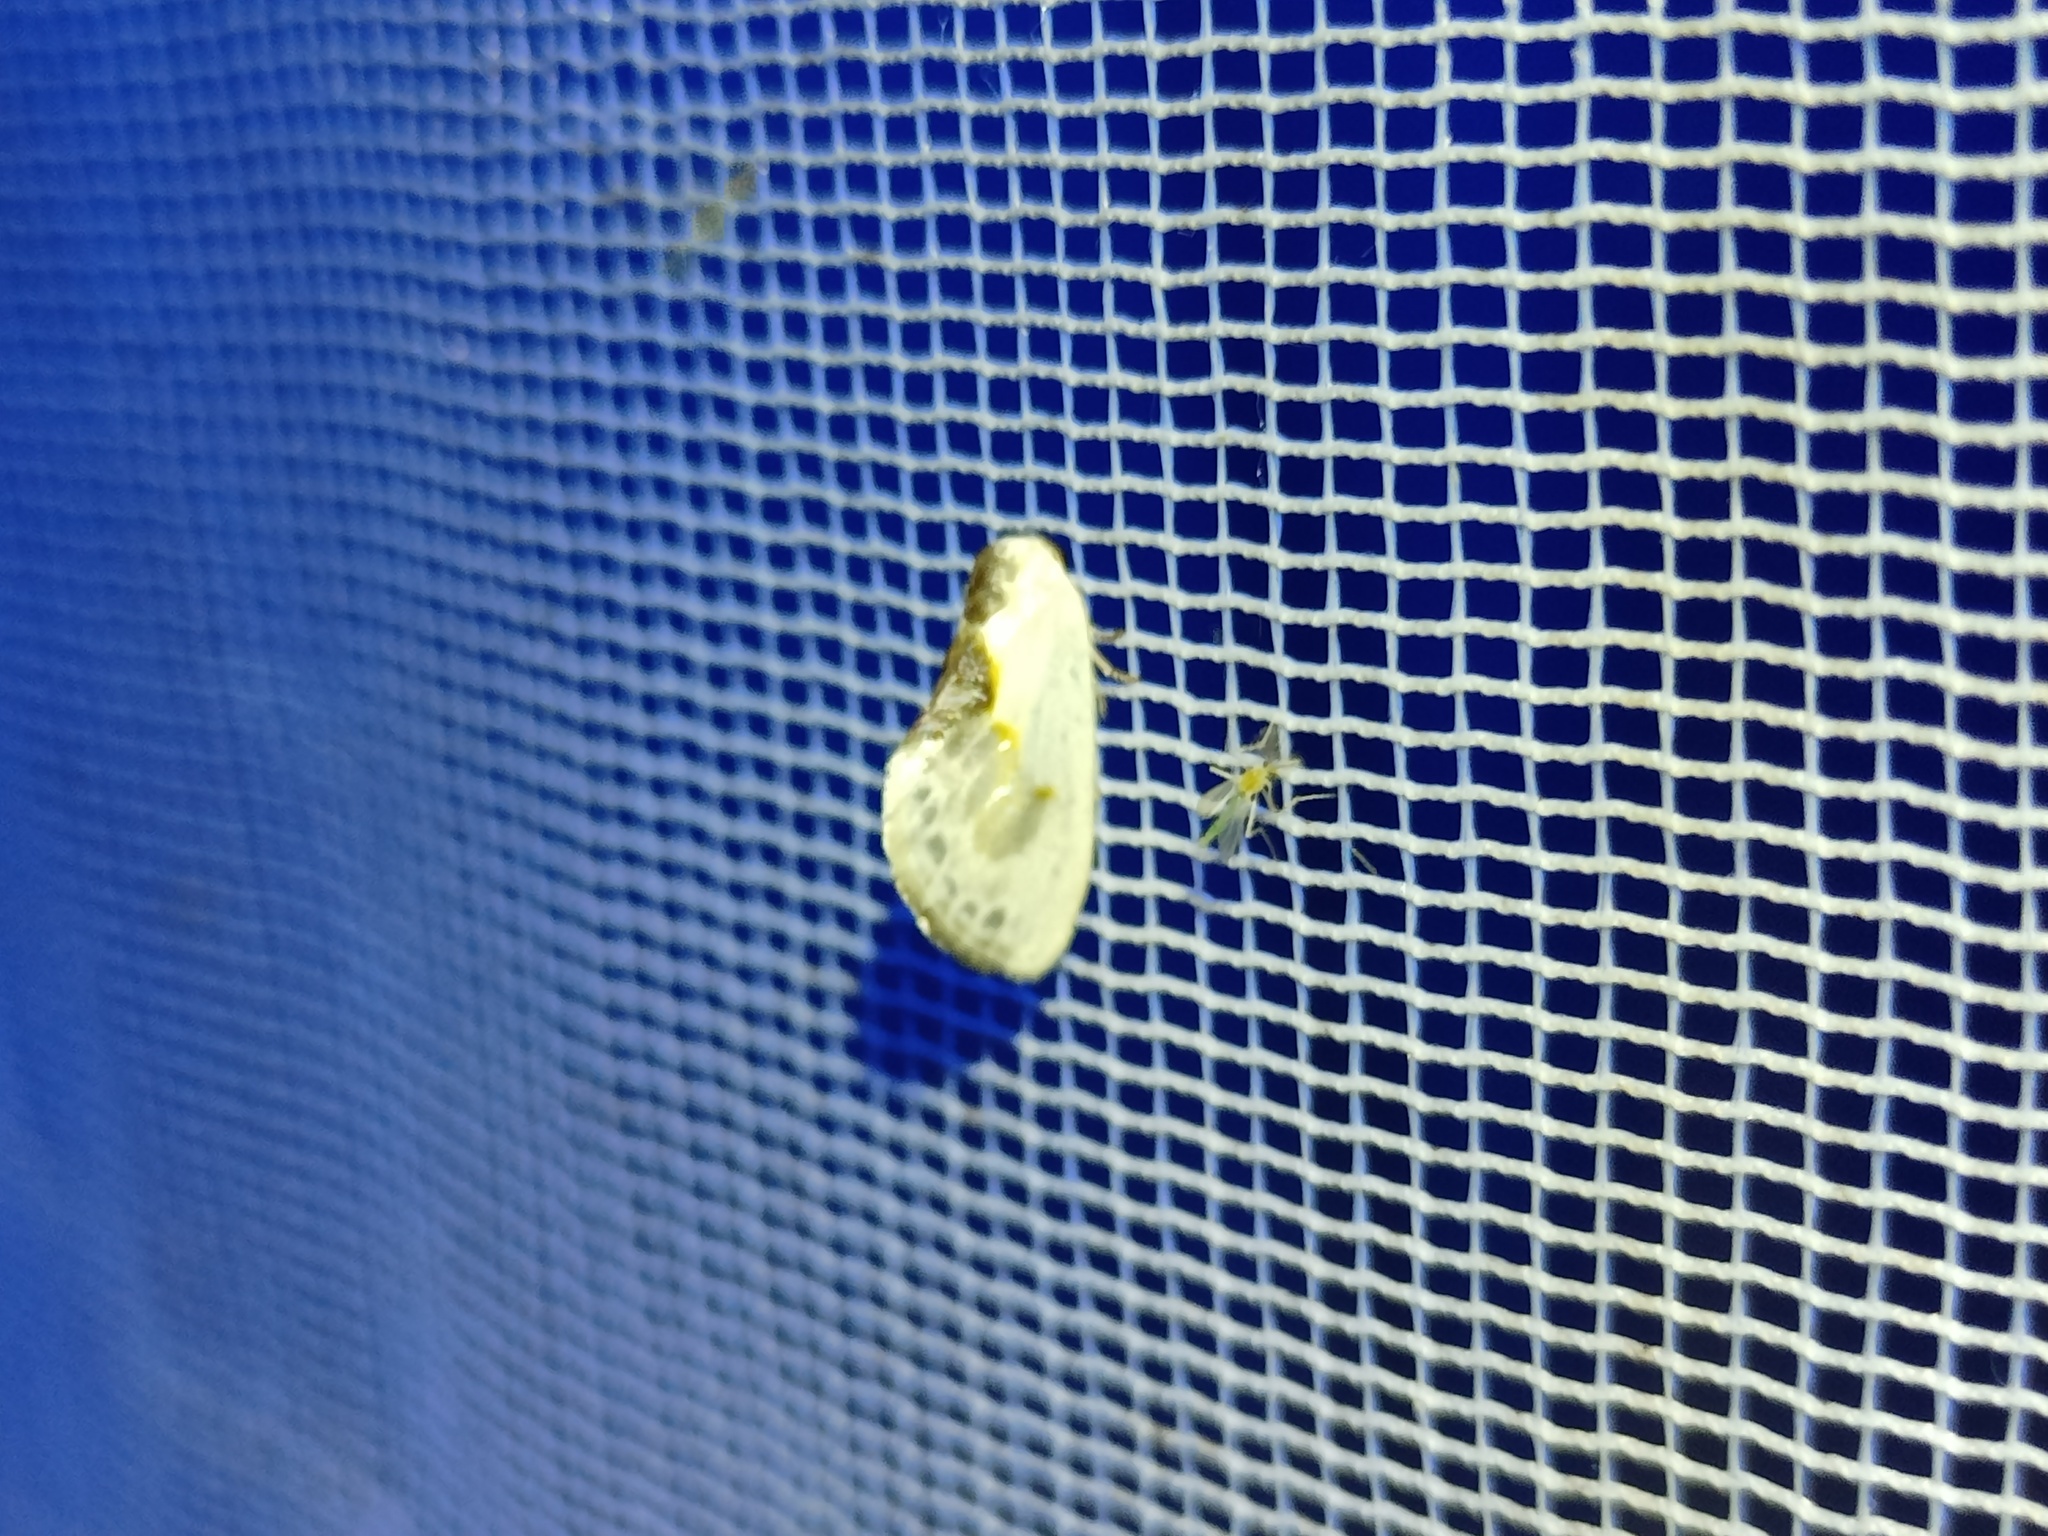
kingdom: Animalia
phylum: Arthropoda
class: Insecta
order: Lepidoptera
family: Drepanidae
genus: Cilix
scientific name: Cilix glaucata
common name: Chinese character
